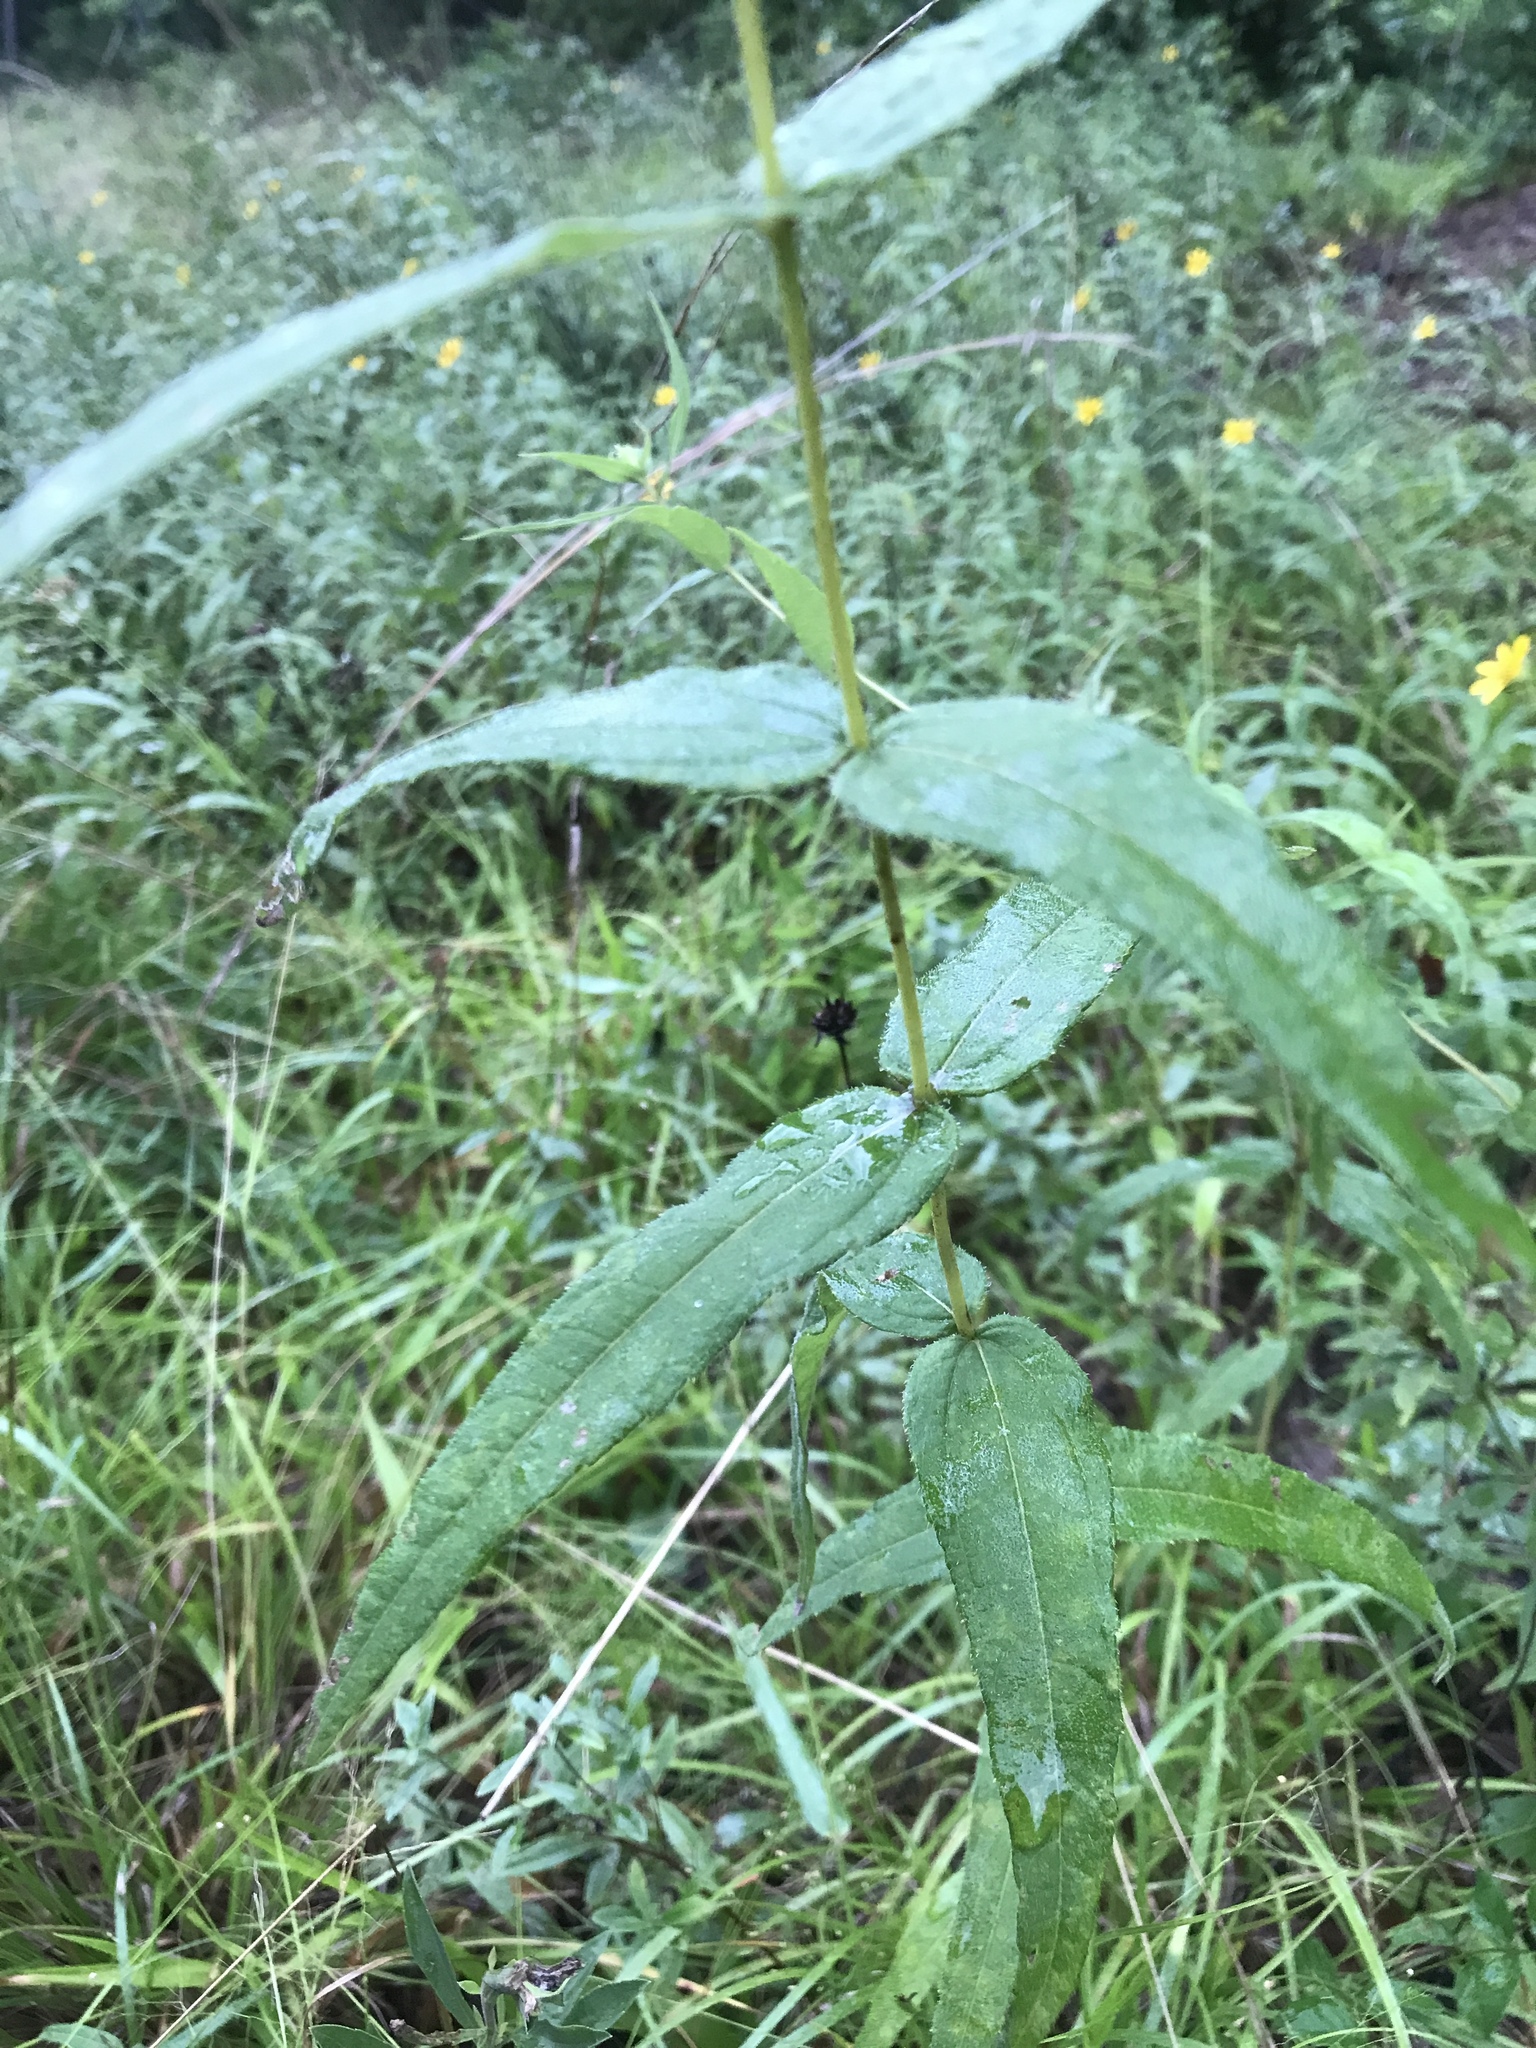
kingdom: Plantae
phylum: Tracheophyta
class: Magnoliopsida
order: Asterales
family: Asteraceae
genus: Helianthus
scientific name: Helianthus divaricatus
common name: Divergent sunflower
